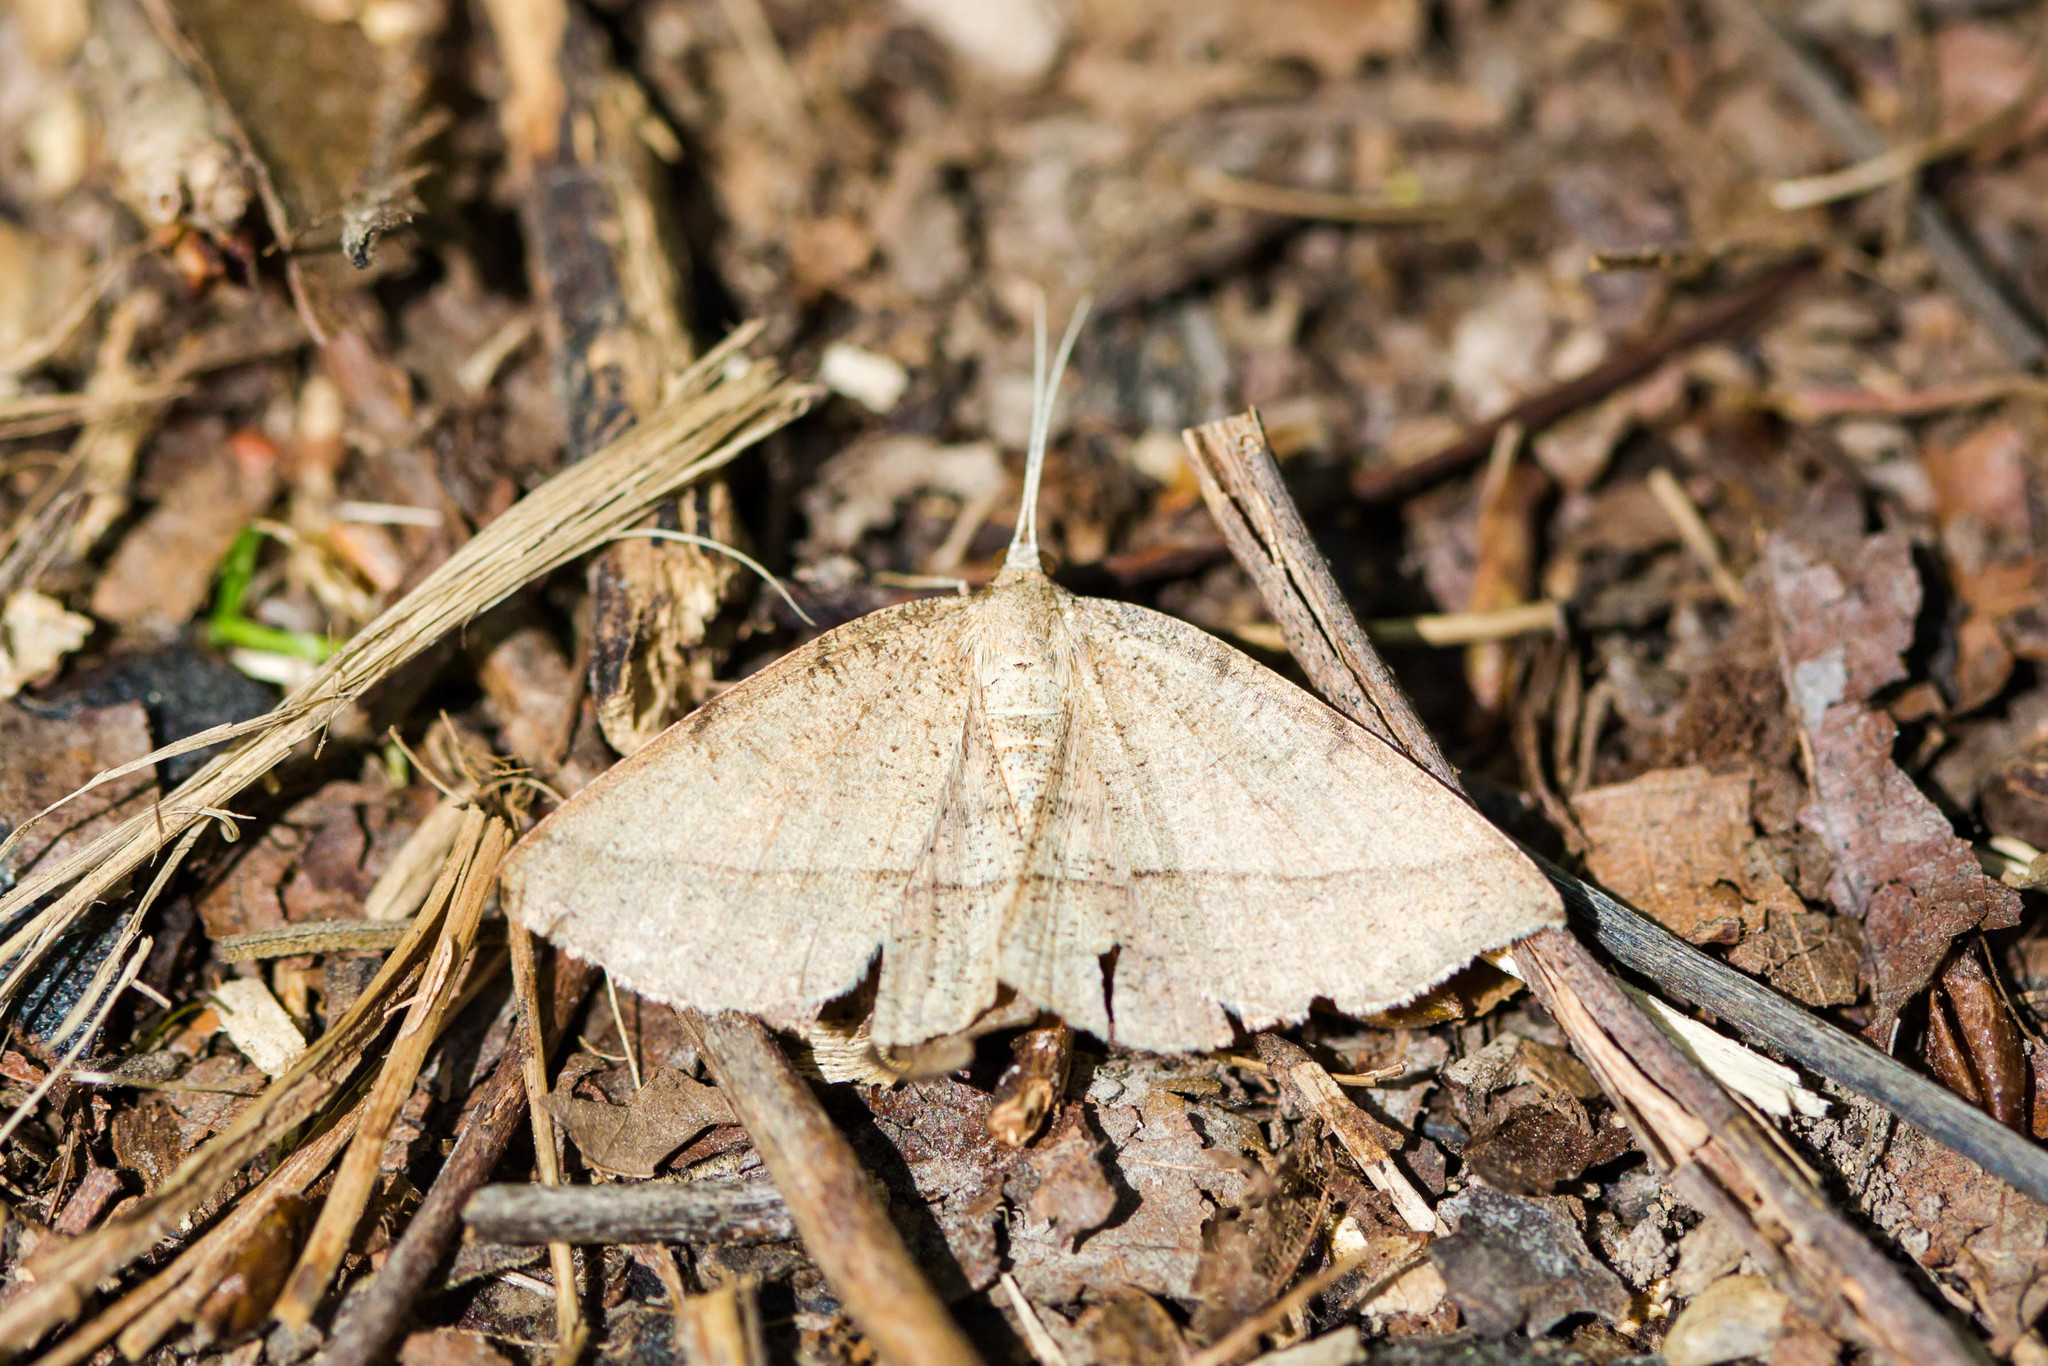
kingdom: Animalia
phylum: Arthropoda
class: Insecta
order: Lepidoptera
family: Geometridae
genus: Erastria
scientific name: Erastria cruentaria
